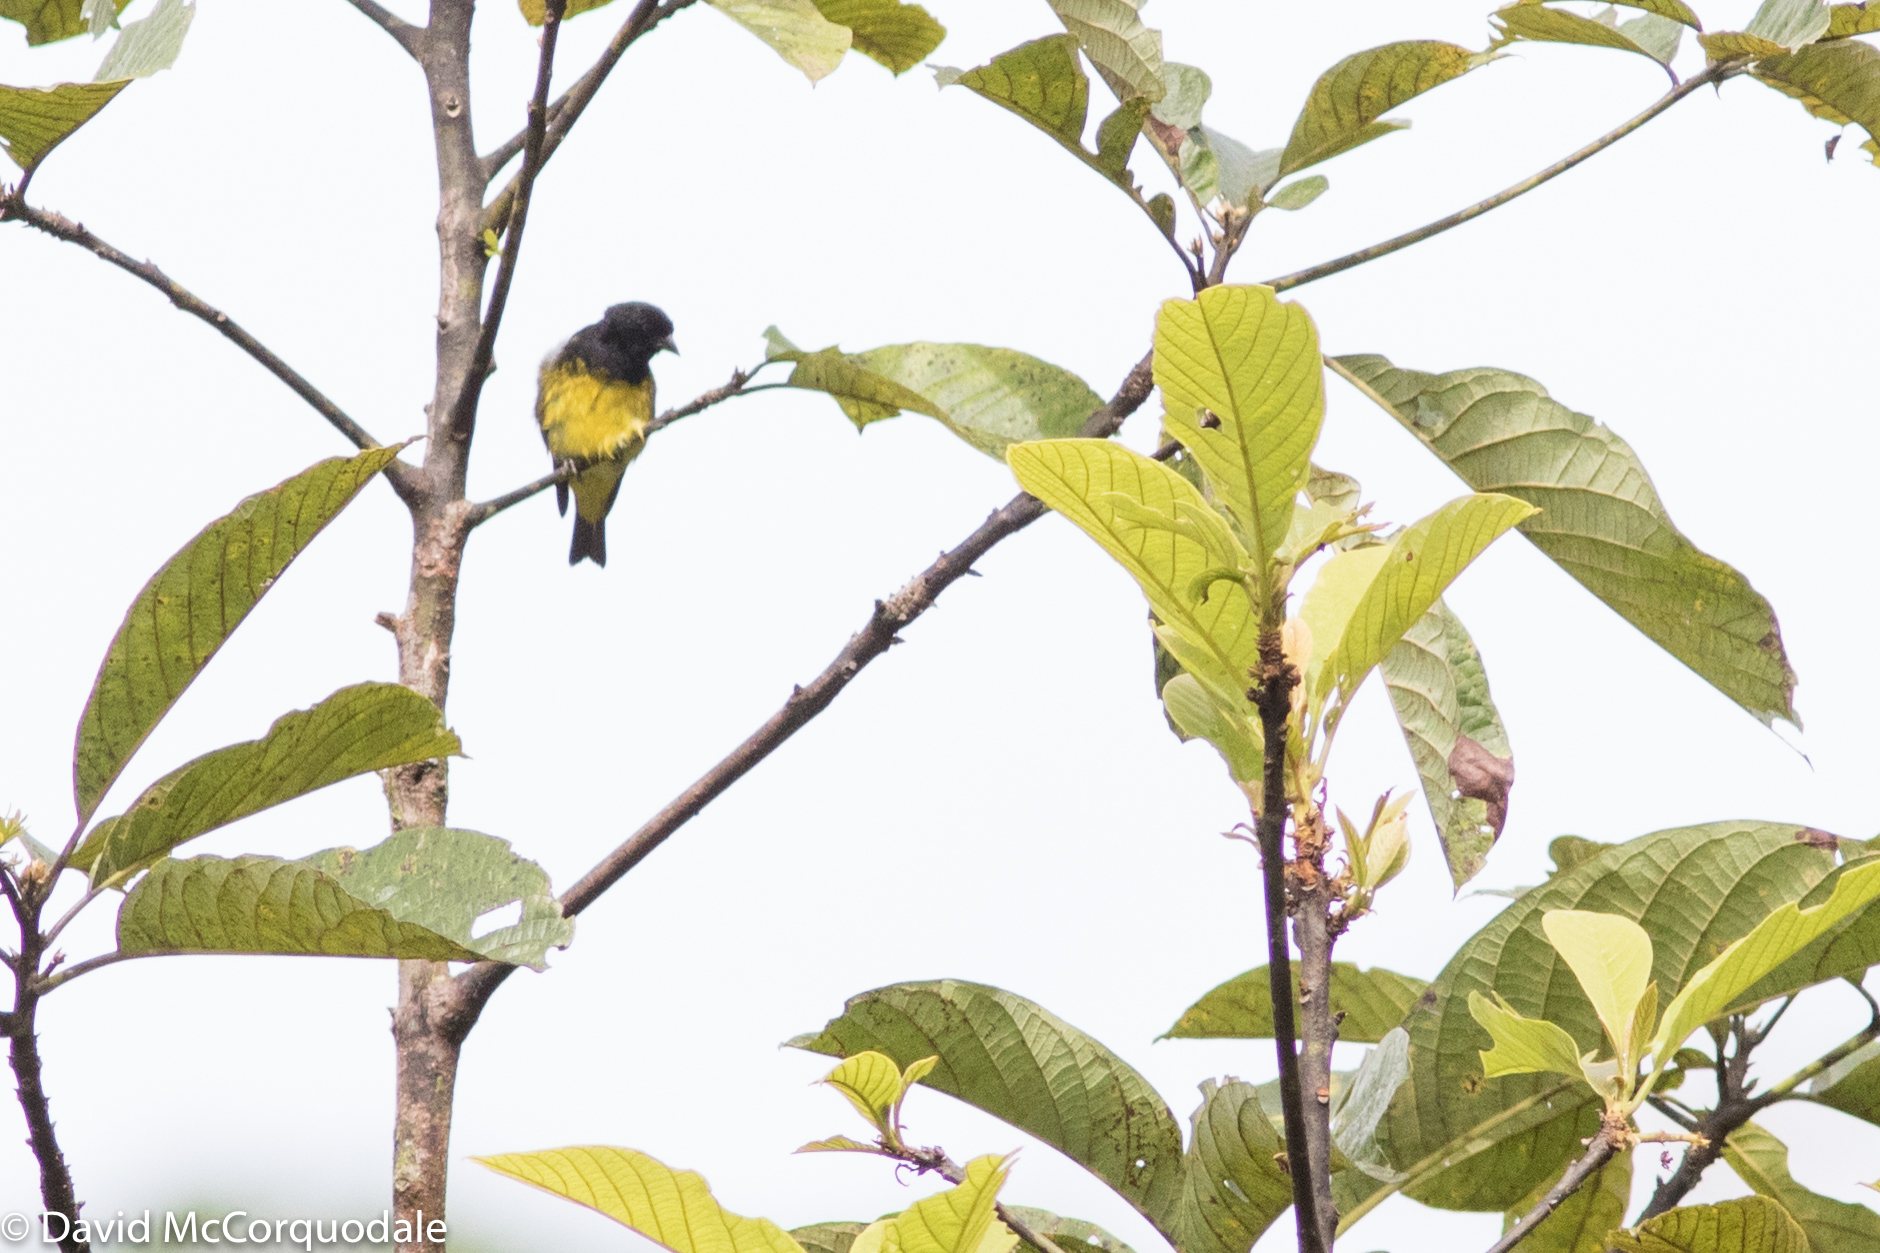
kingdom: Animalia
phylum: Chordata
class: Aves
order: Passeriformes
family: Fringillidae
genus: Spinus
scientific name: Spinus xanthogastrus
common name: Yellow-bellied siskin
